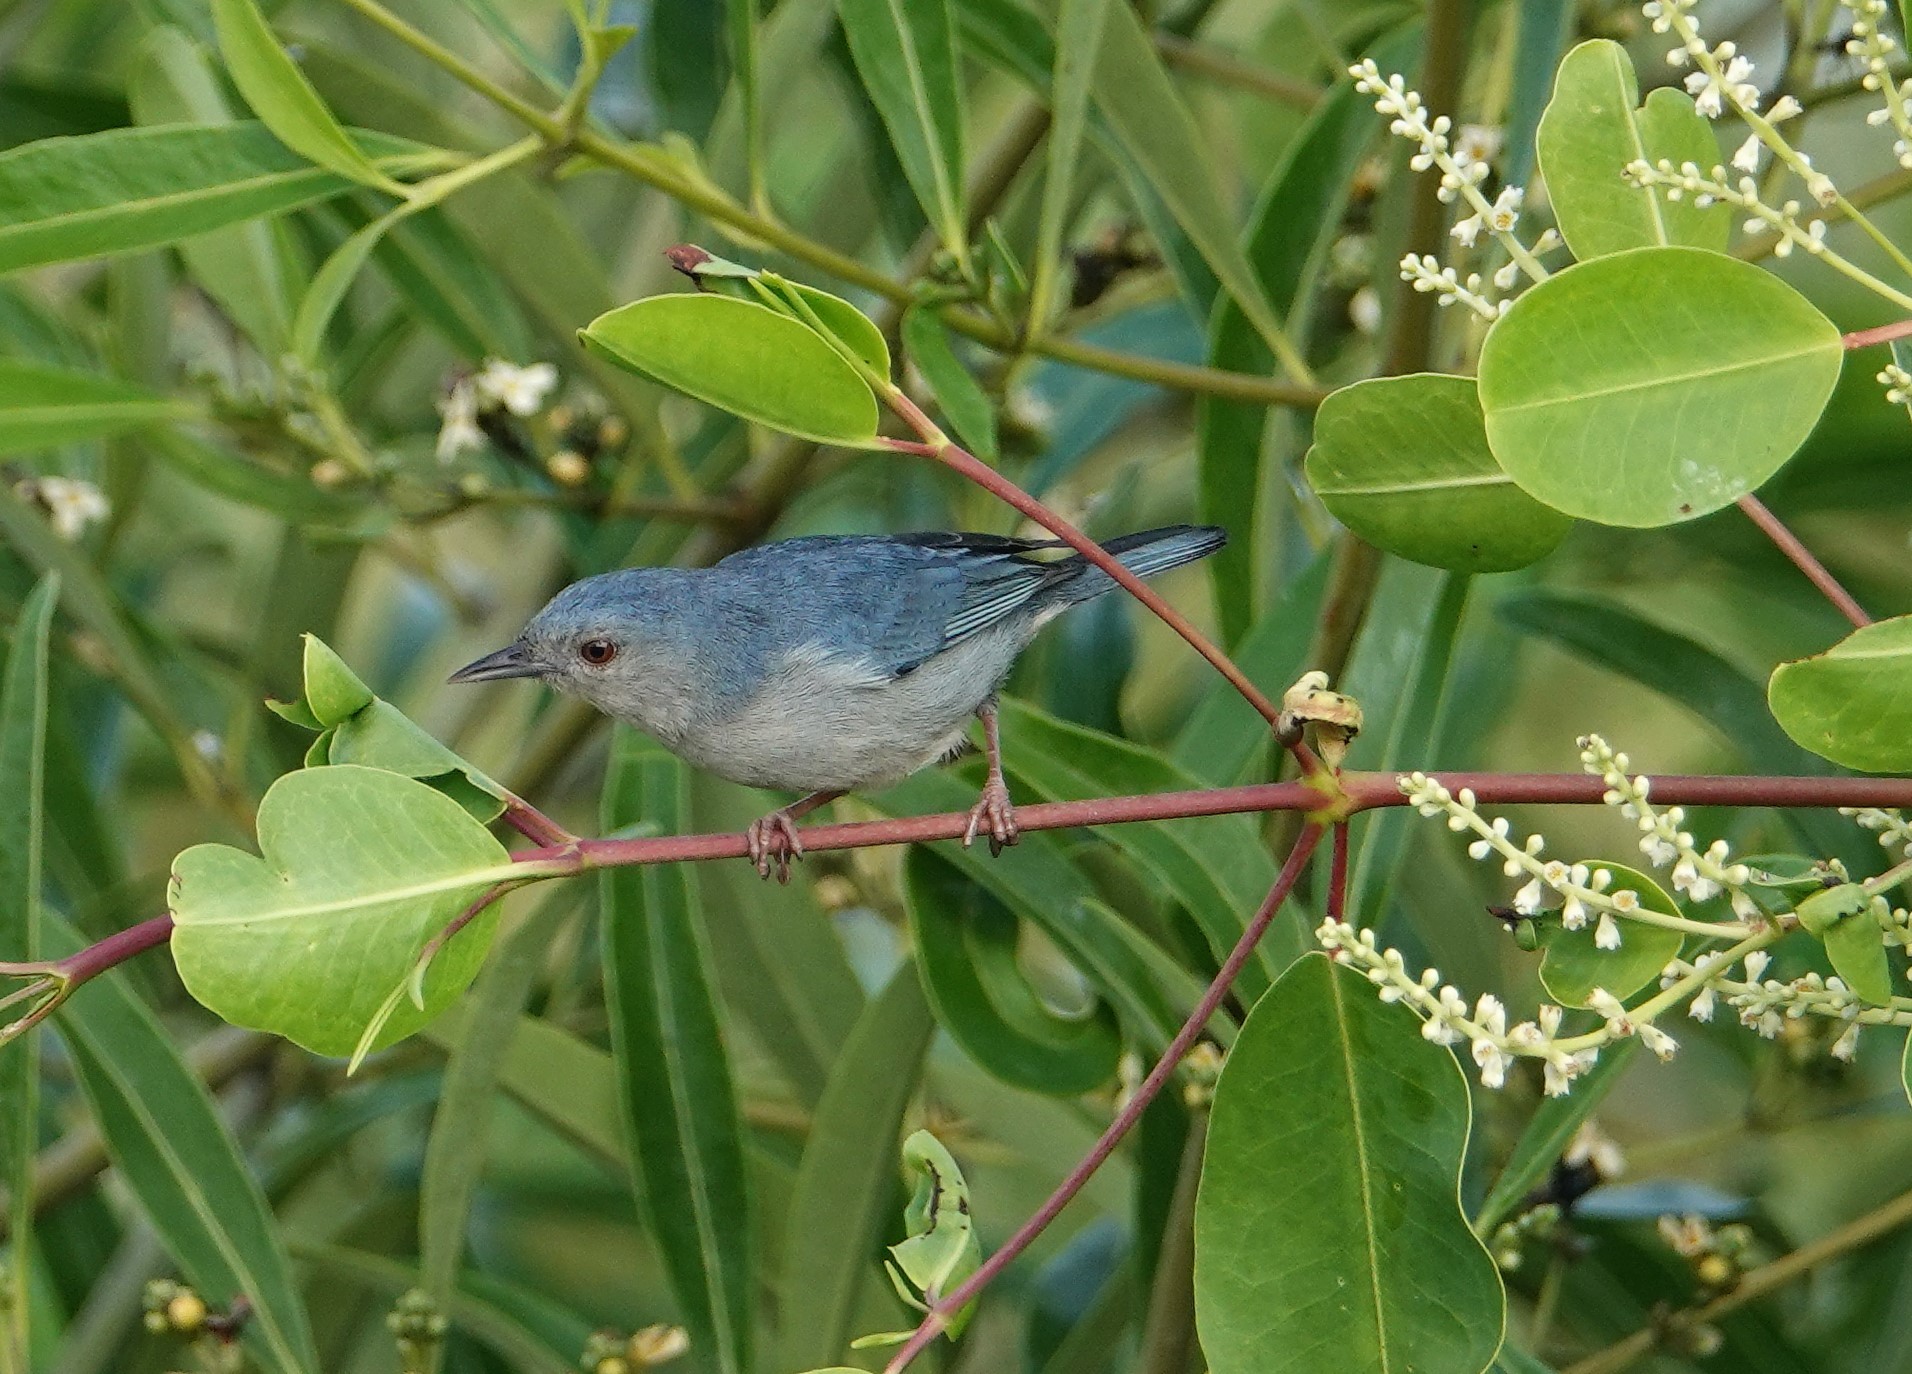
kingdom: Animalia
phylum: Chordata
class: Aves
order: Passeriformes
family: Thraupidae
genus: Conirostrum
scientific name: Conirostrum bicolor
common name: Bicolored conebill
